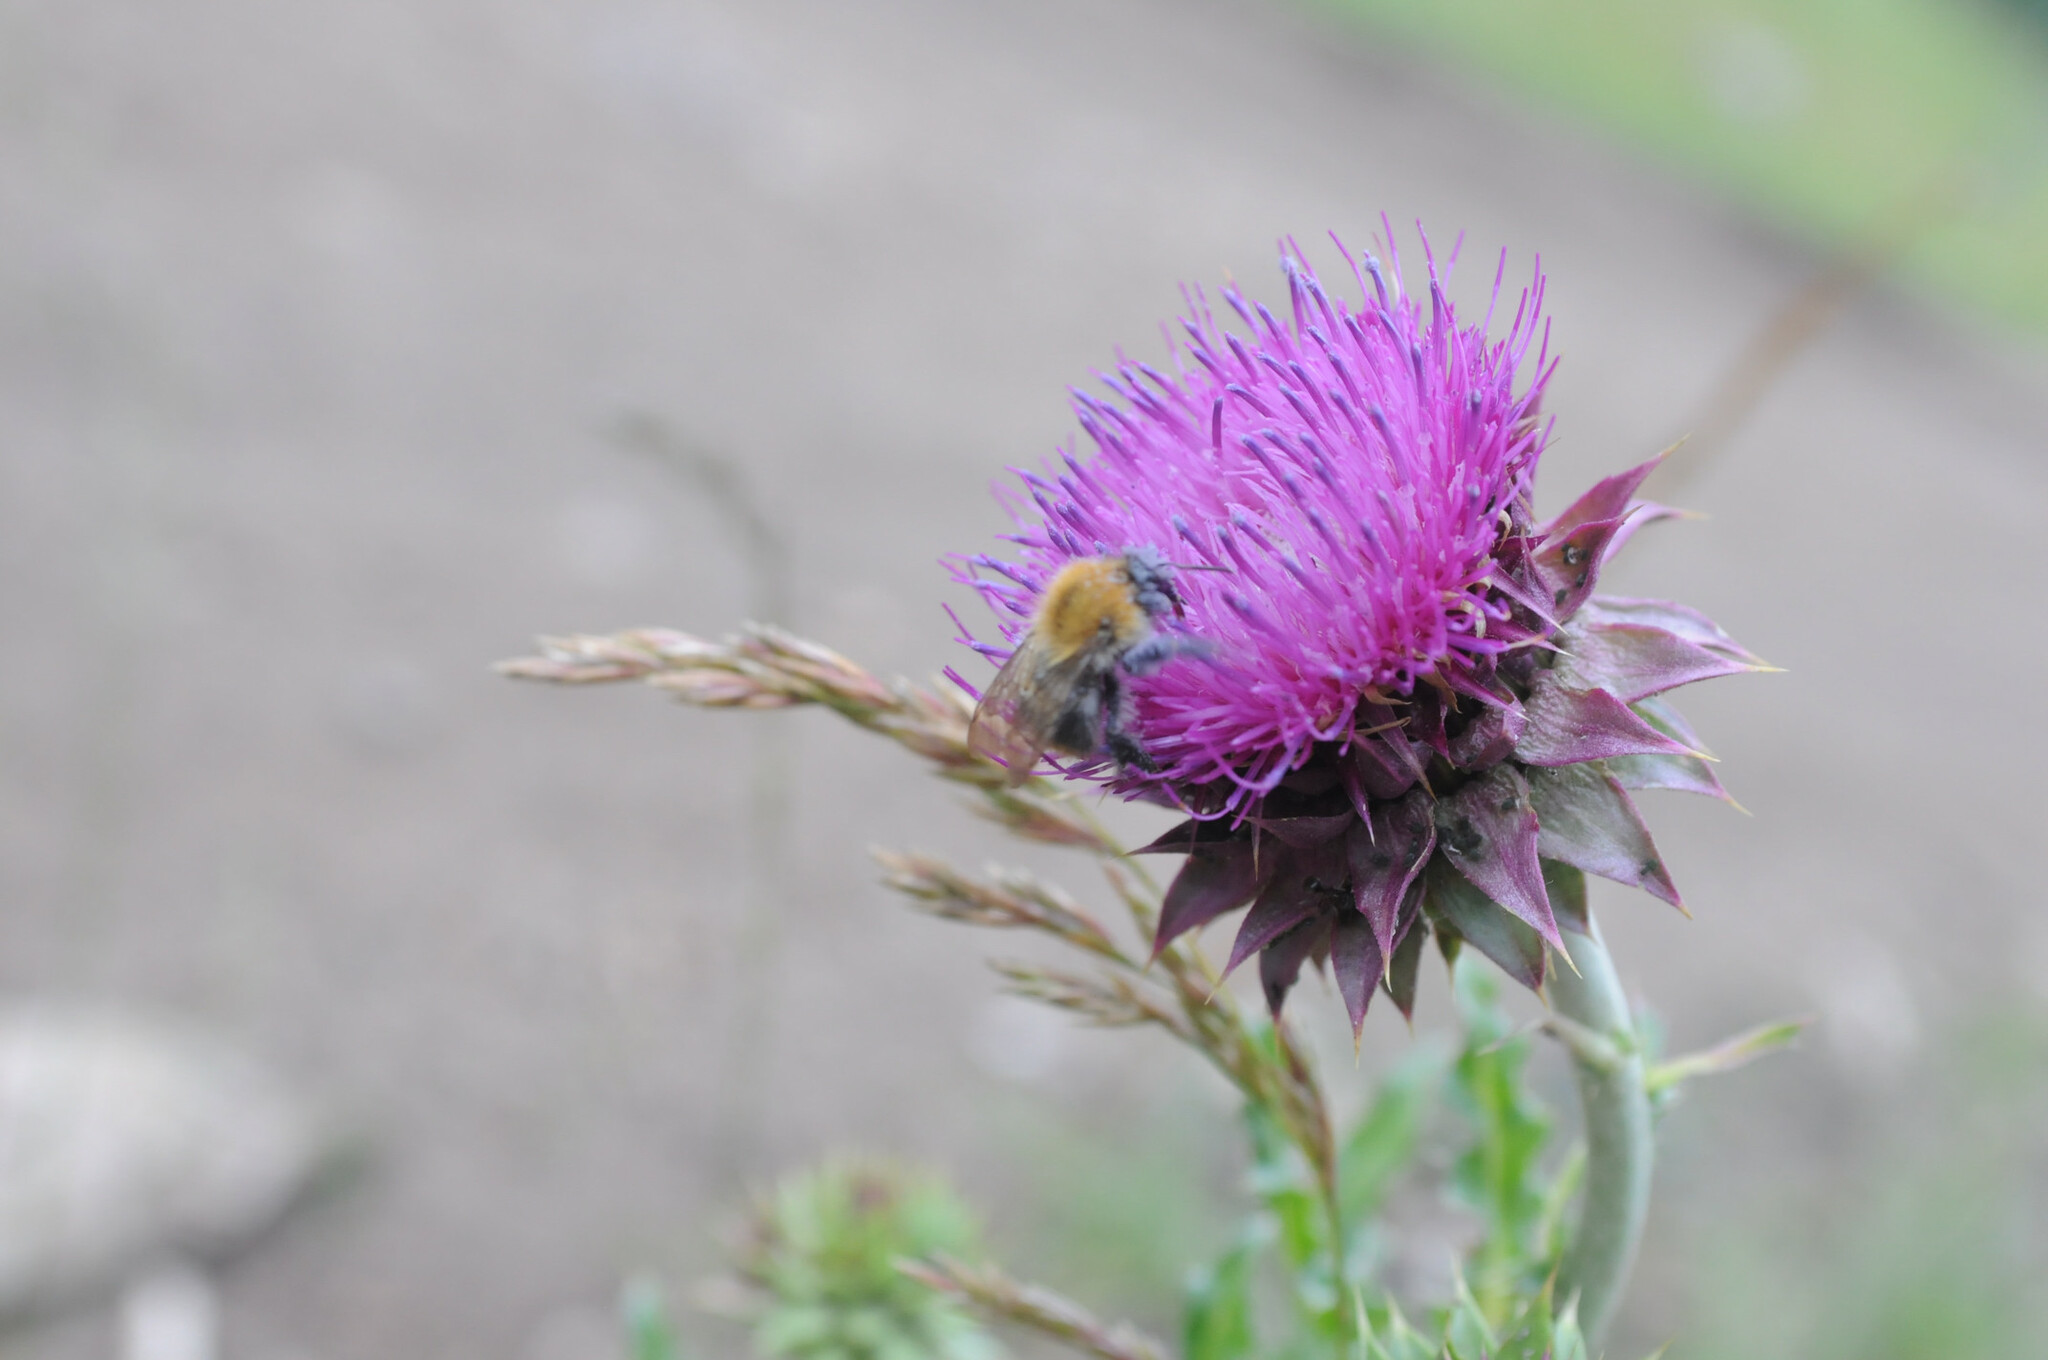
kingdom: Animalia
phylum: Arthropoda
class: Insecta
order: Hymenoptera
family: Apidae
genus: Bombus
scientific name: Bombus pascuorum
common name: Common carder bee
